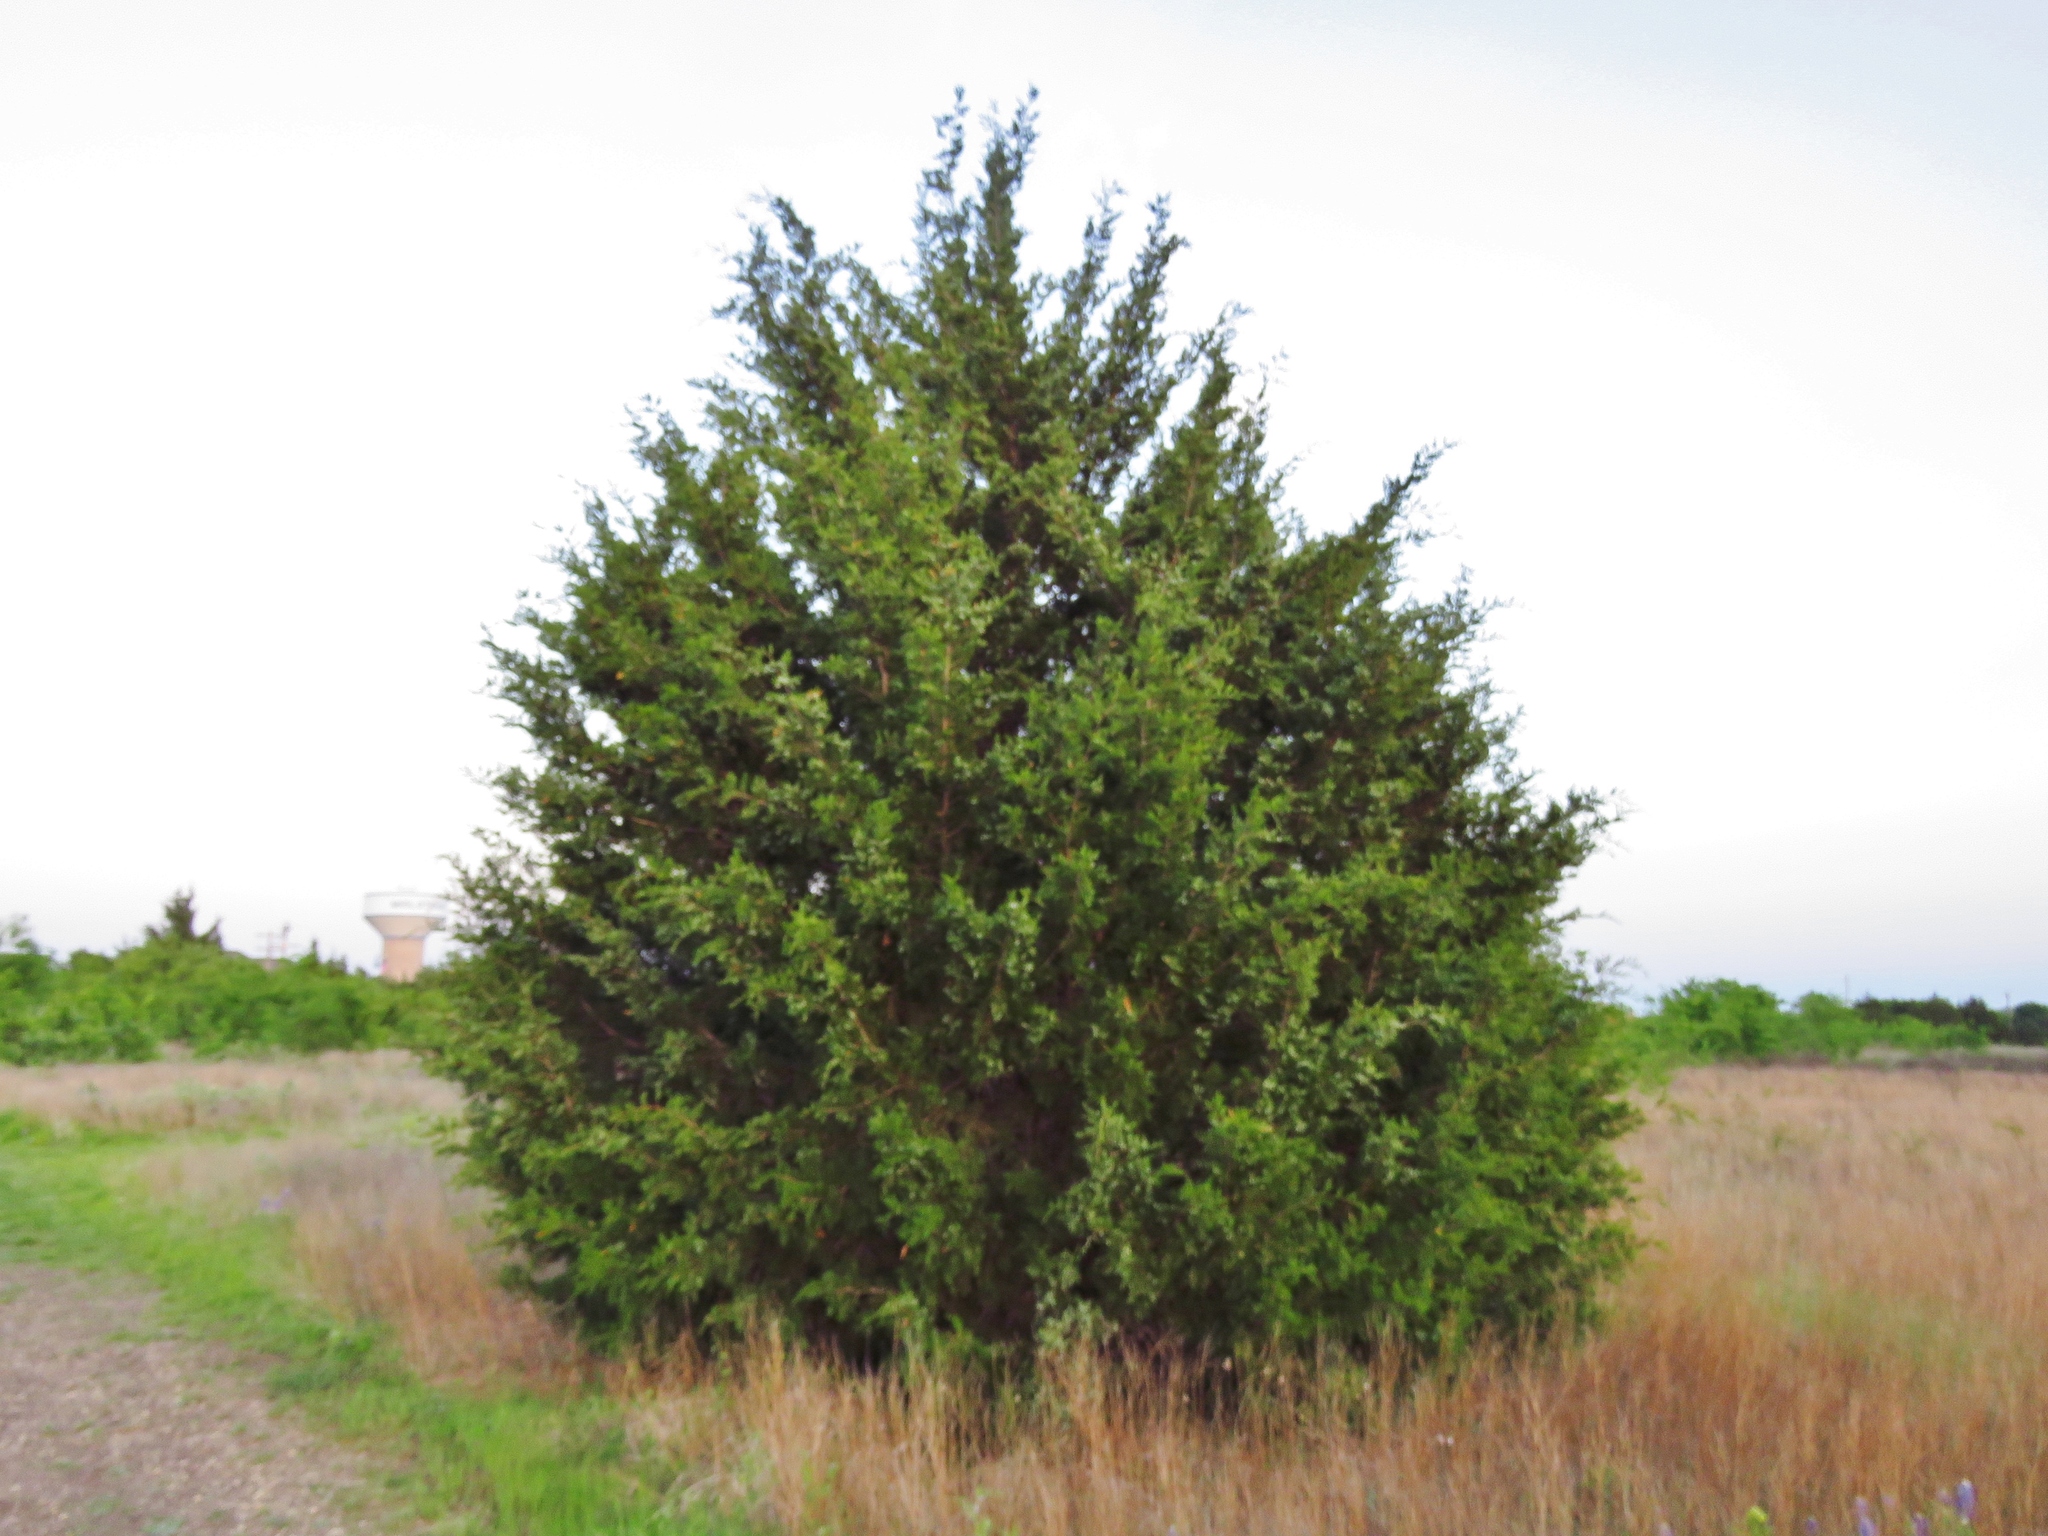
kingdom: Plantae
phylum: Tracheophyta
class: Pinopsida
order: Pinales
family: Cupressaceae
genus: Juniperus
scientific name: Juniperus virginiana
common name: Red juniper
